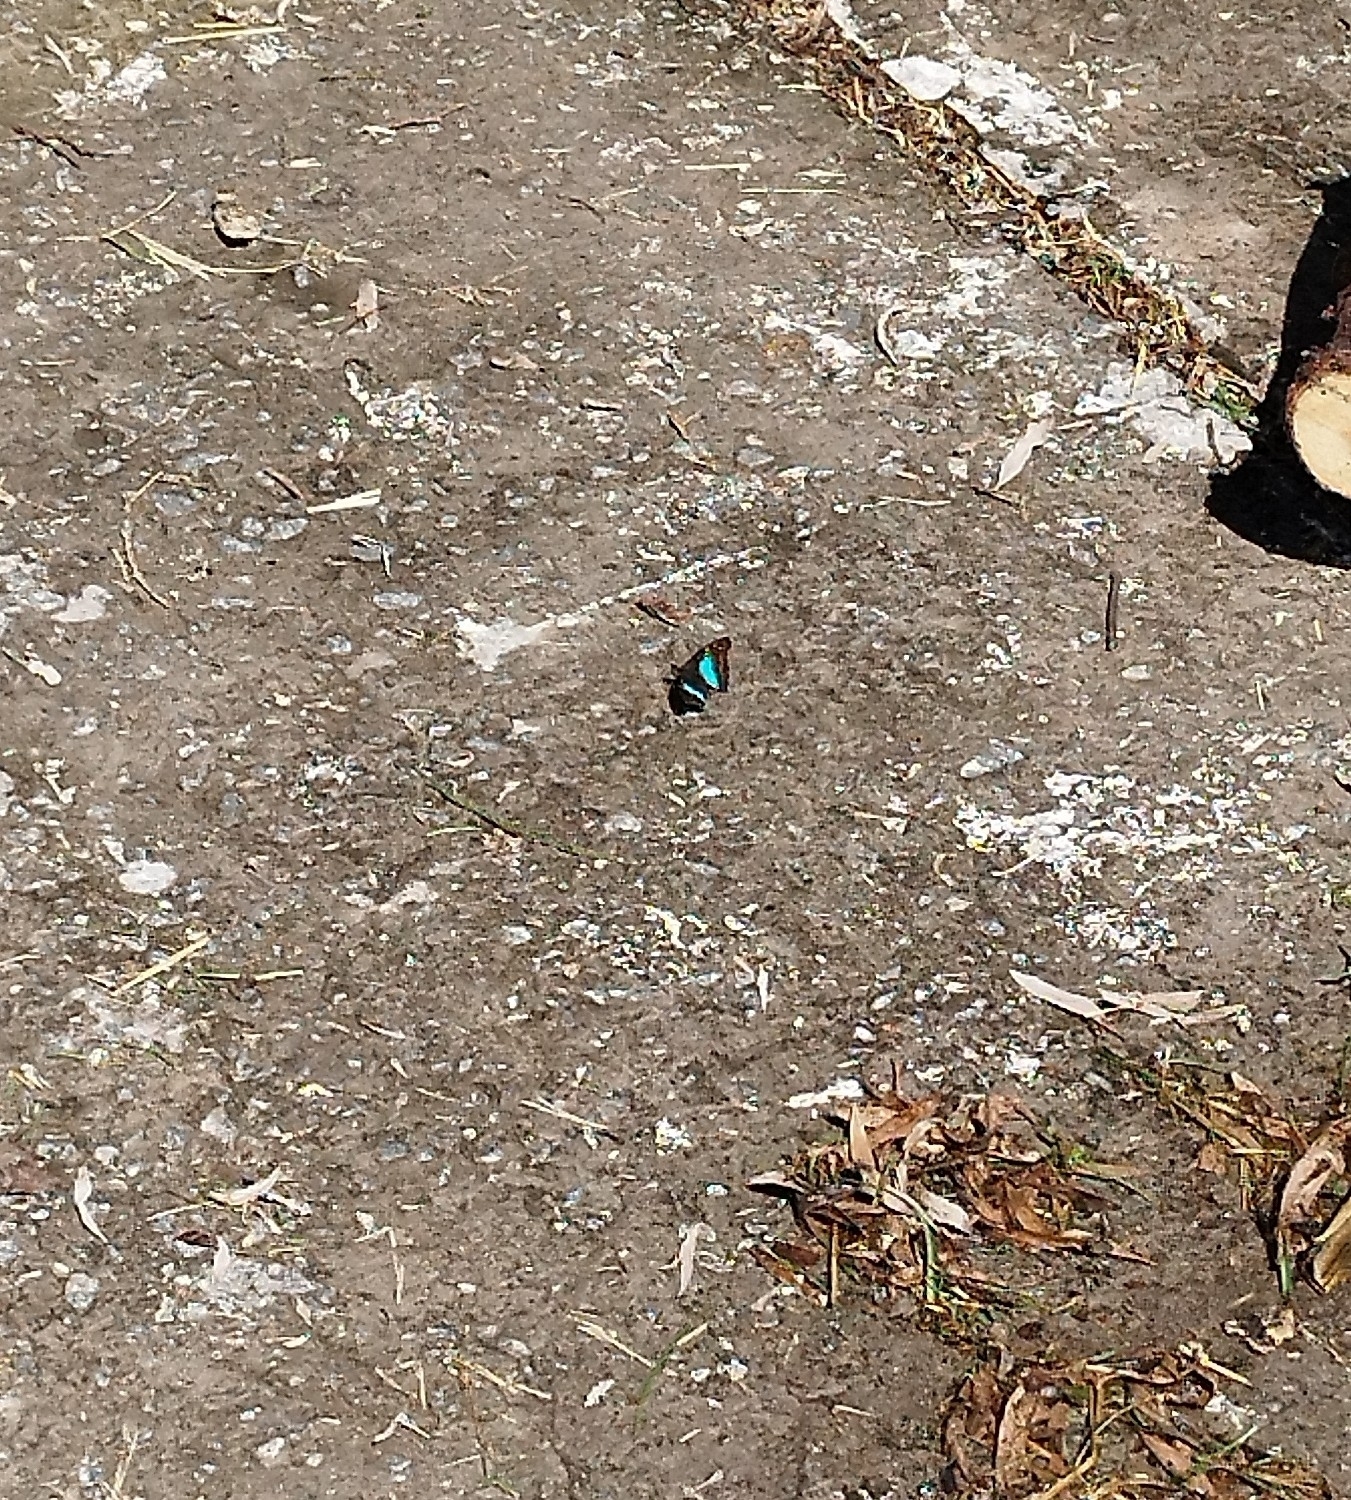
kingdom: Animalia
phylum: Arthropoda
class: Insecta
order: Lepidoptera
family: Nymphalidae
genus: Doxocopa
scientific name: Doxocopa laurentia
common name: Turquoise emperor
